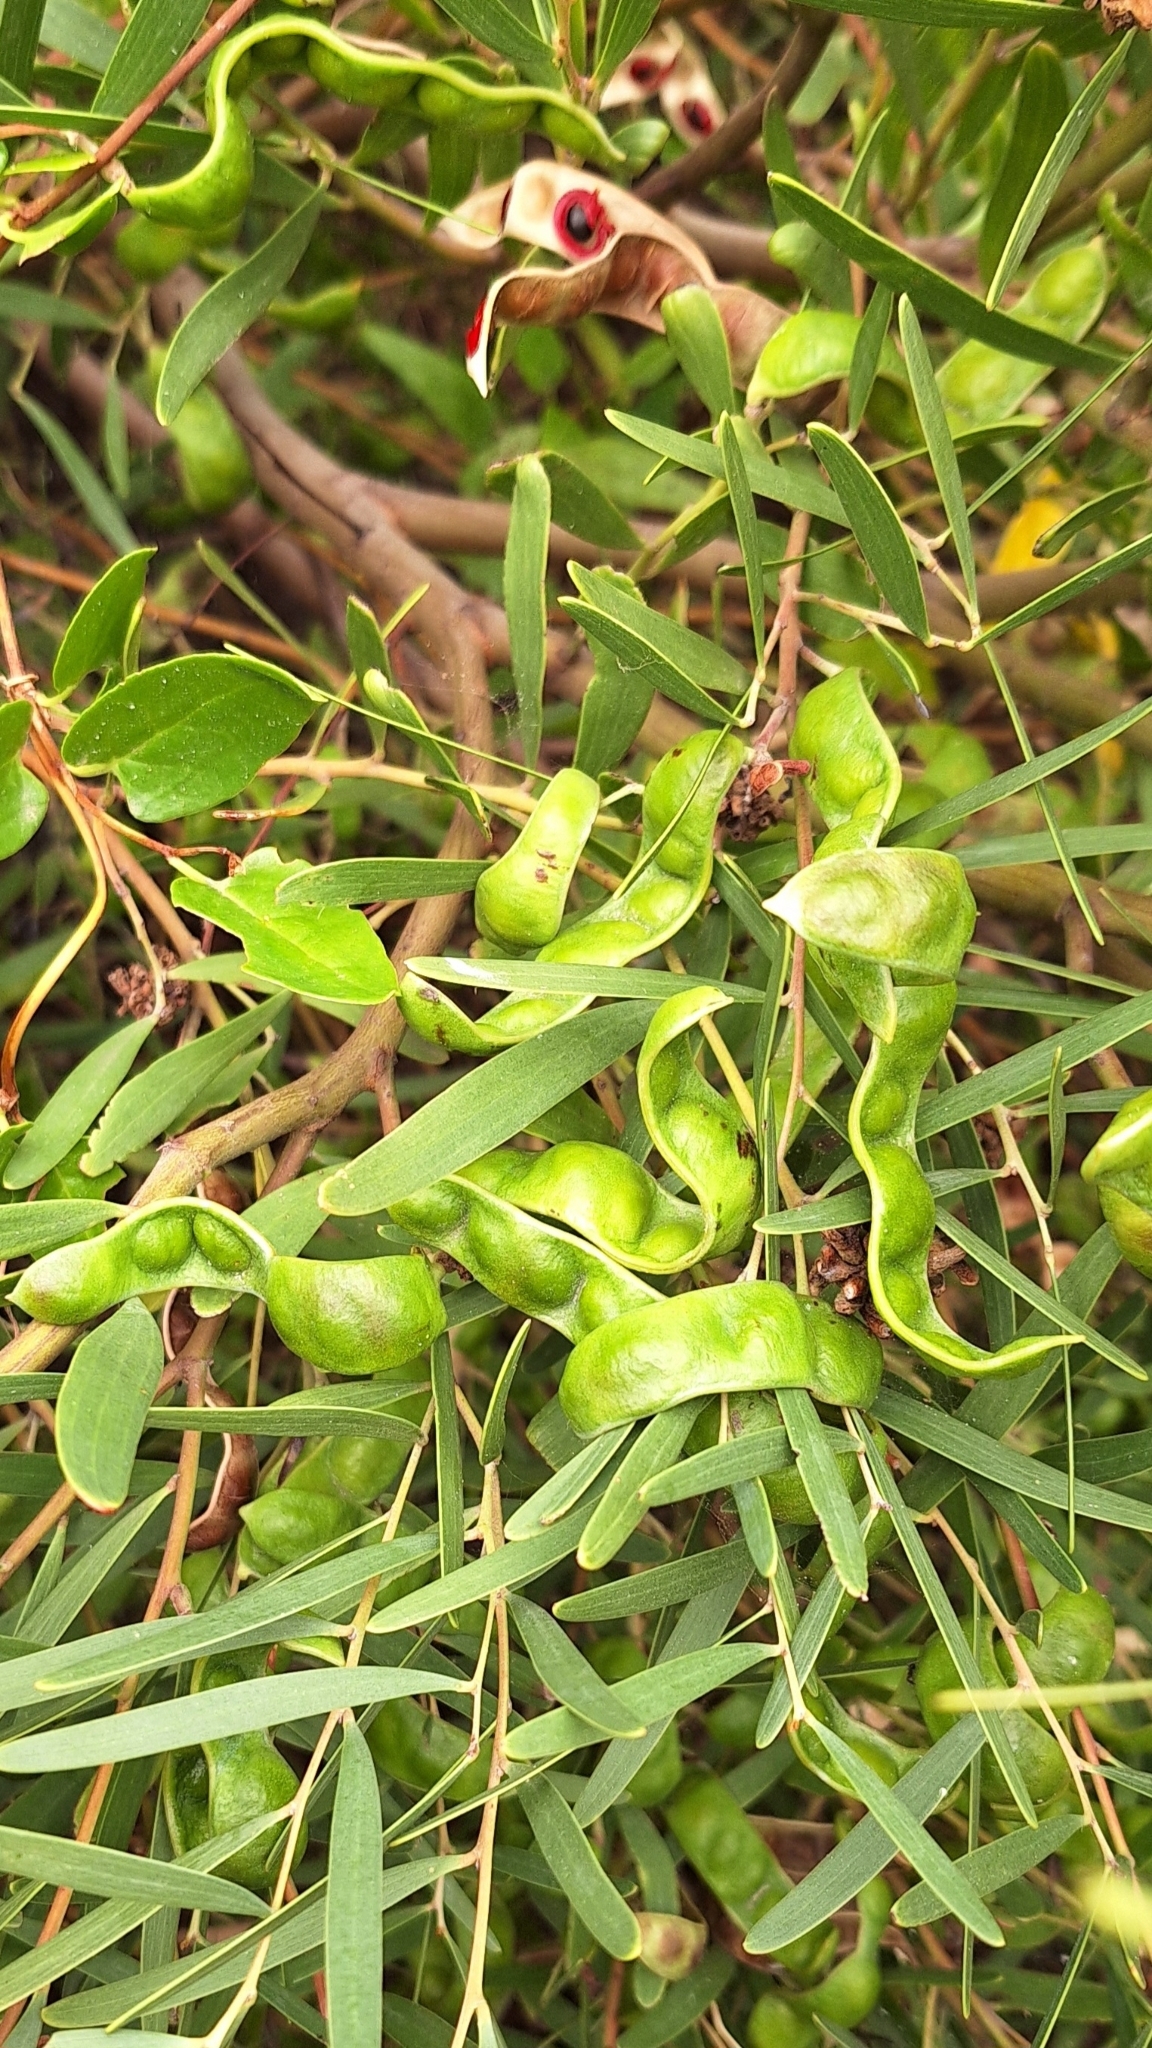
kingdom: Plantae
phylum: Tracheophyta
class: Magnoliopsida
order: Fabales
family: Fabaceae
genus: Acacia
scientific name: Acacia cyclops
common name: Coastal wattle
